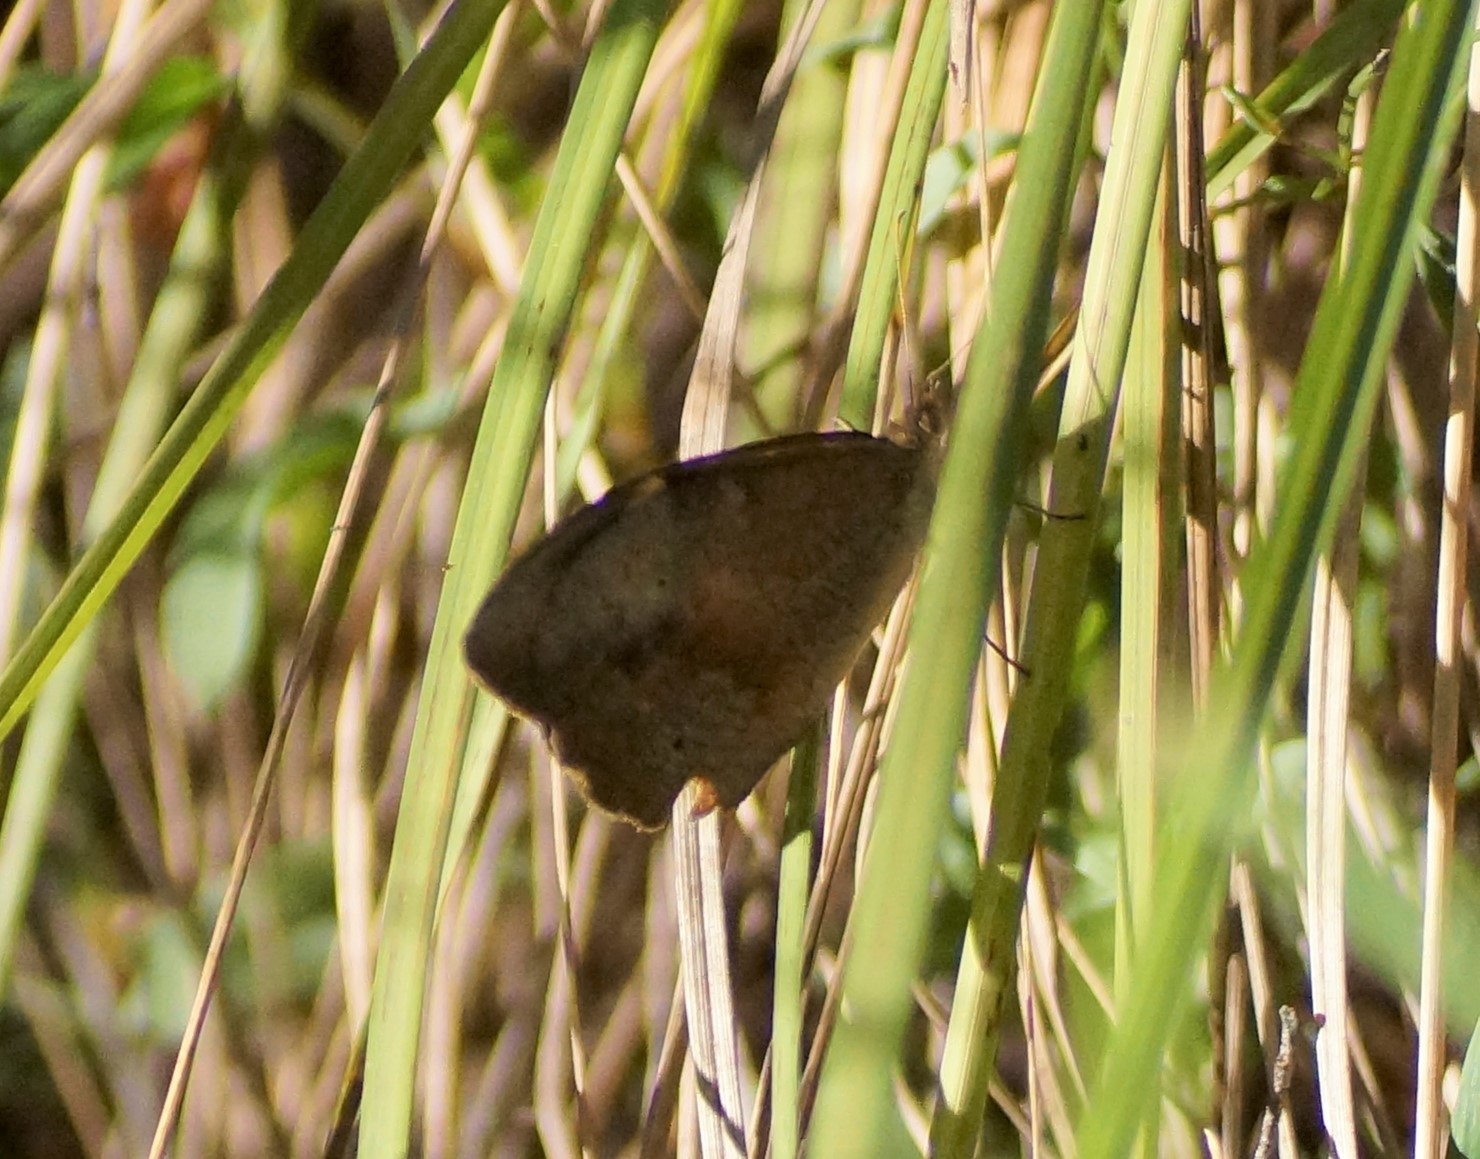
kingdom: Animalia
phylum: Arthropoda
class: Insecta
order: Lepidoptera
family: Nymphalidae
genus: Heteronympha
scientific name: Heteronympha merope
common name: Common brown
